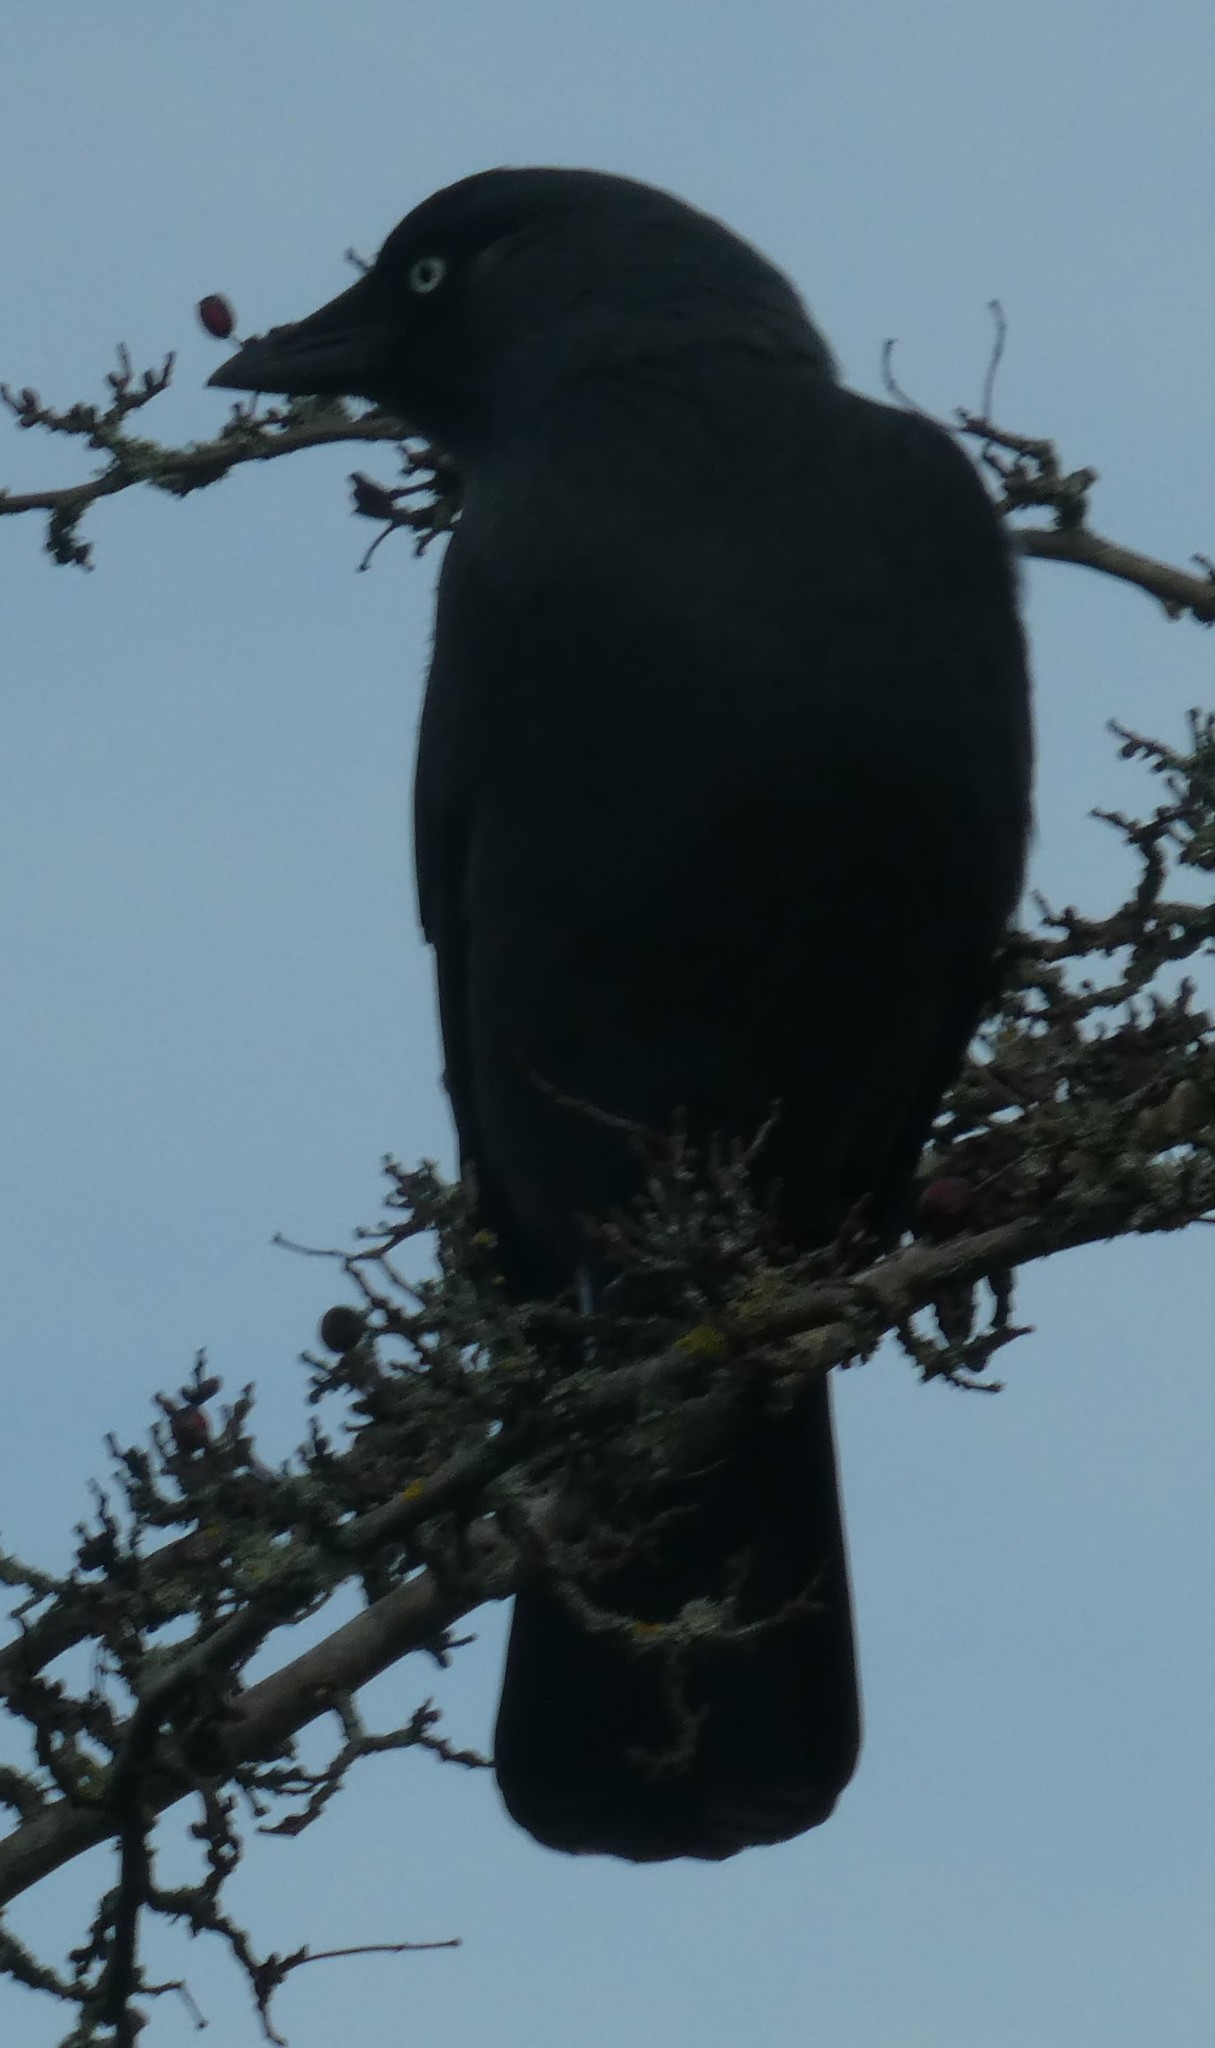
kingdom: Animalia
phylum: Chordata
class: Aves
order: Passeriformes
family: Corvidae
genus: Coloeus
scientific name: Coloeus monedula
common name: Western jackdaw
